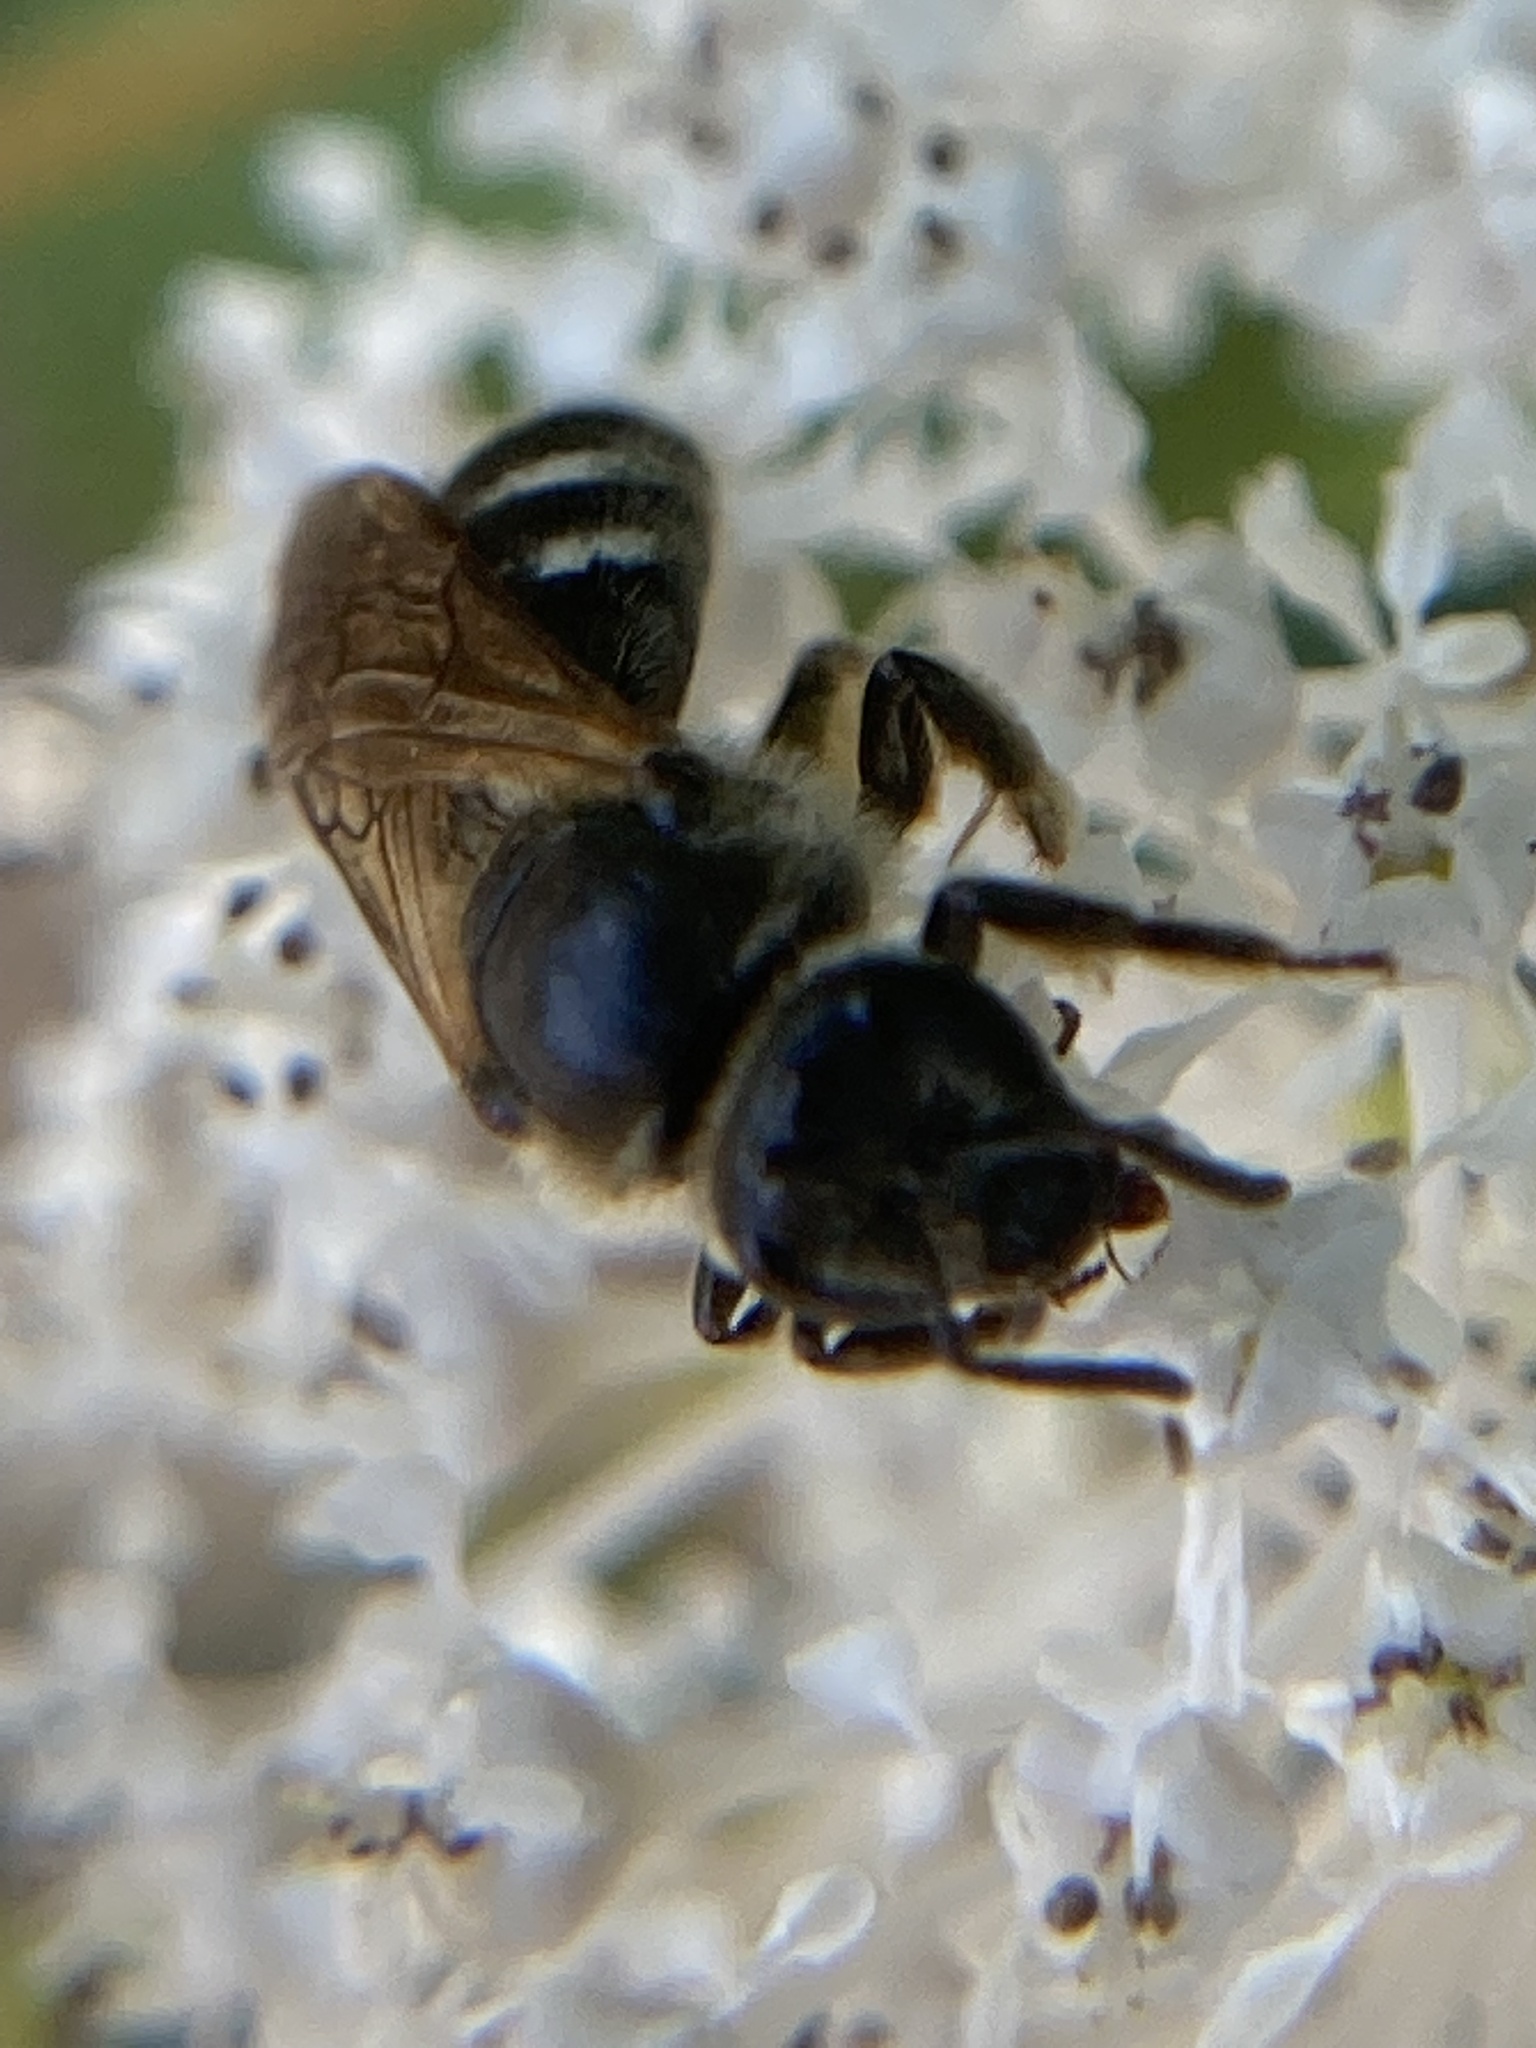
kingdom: Animalia
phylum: Arthropoda
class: Insecta
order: Hymenoptera
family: Halictidae
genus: Lasioglossum
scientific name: Lasioglossum
